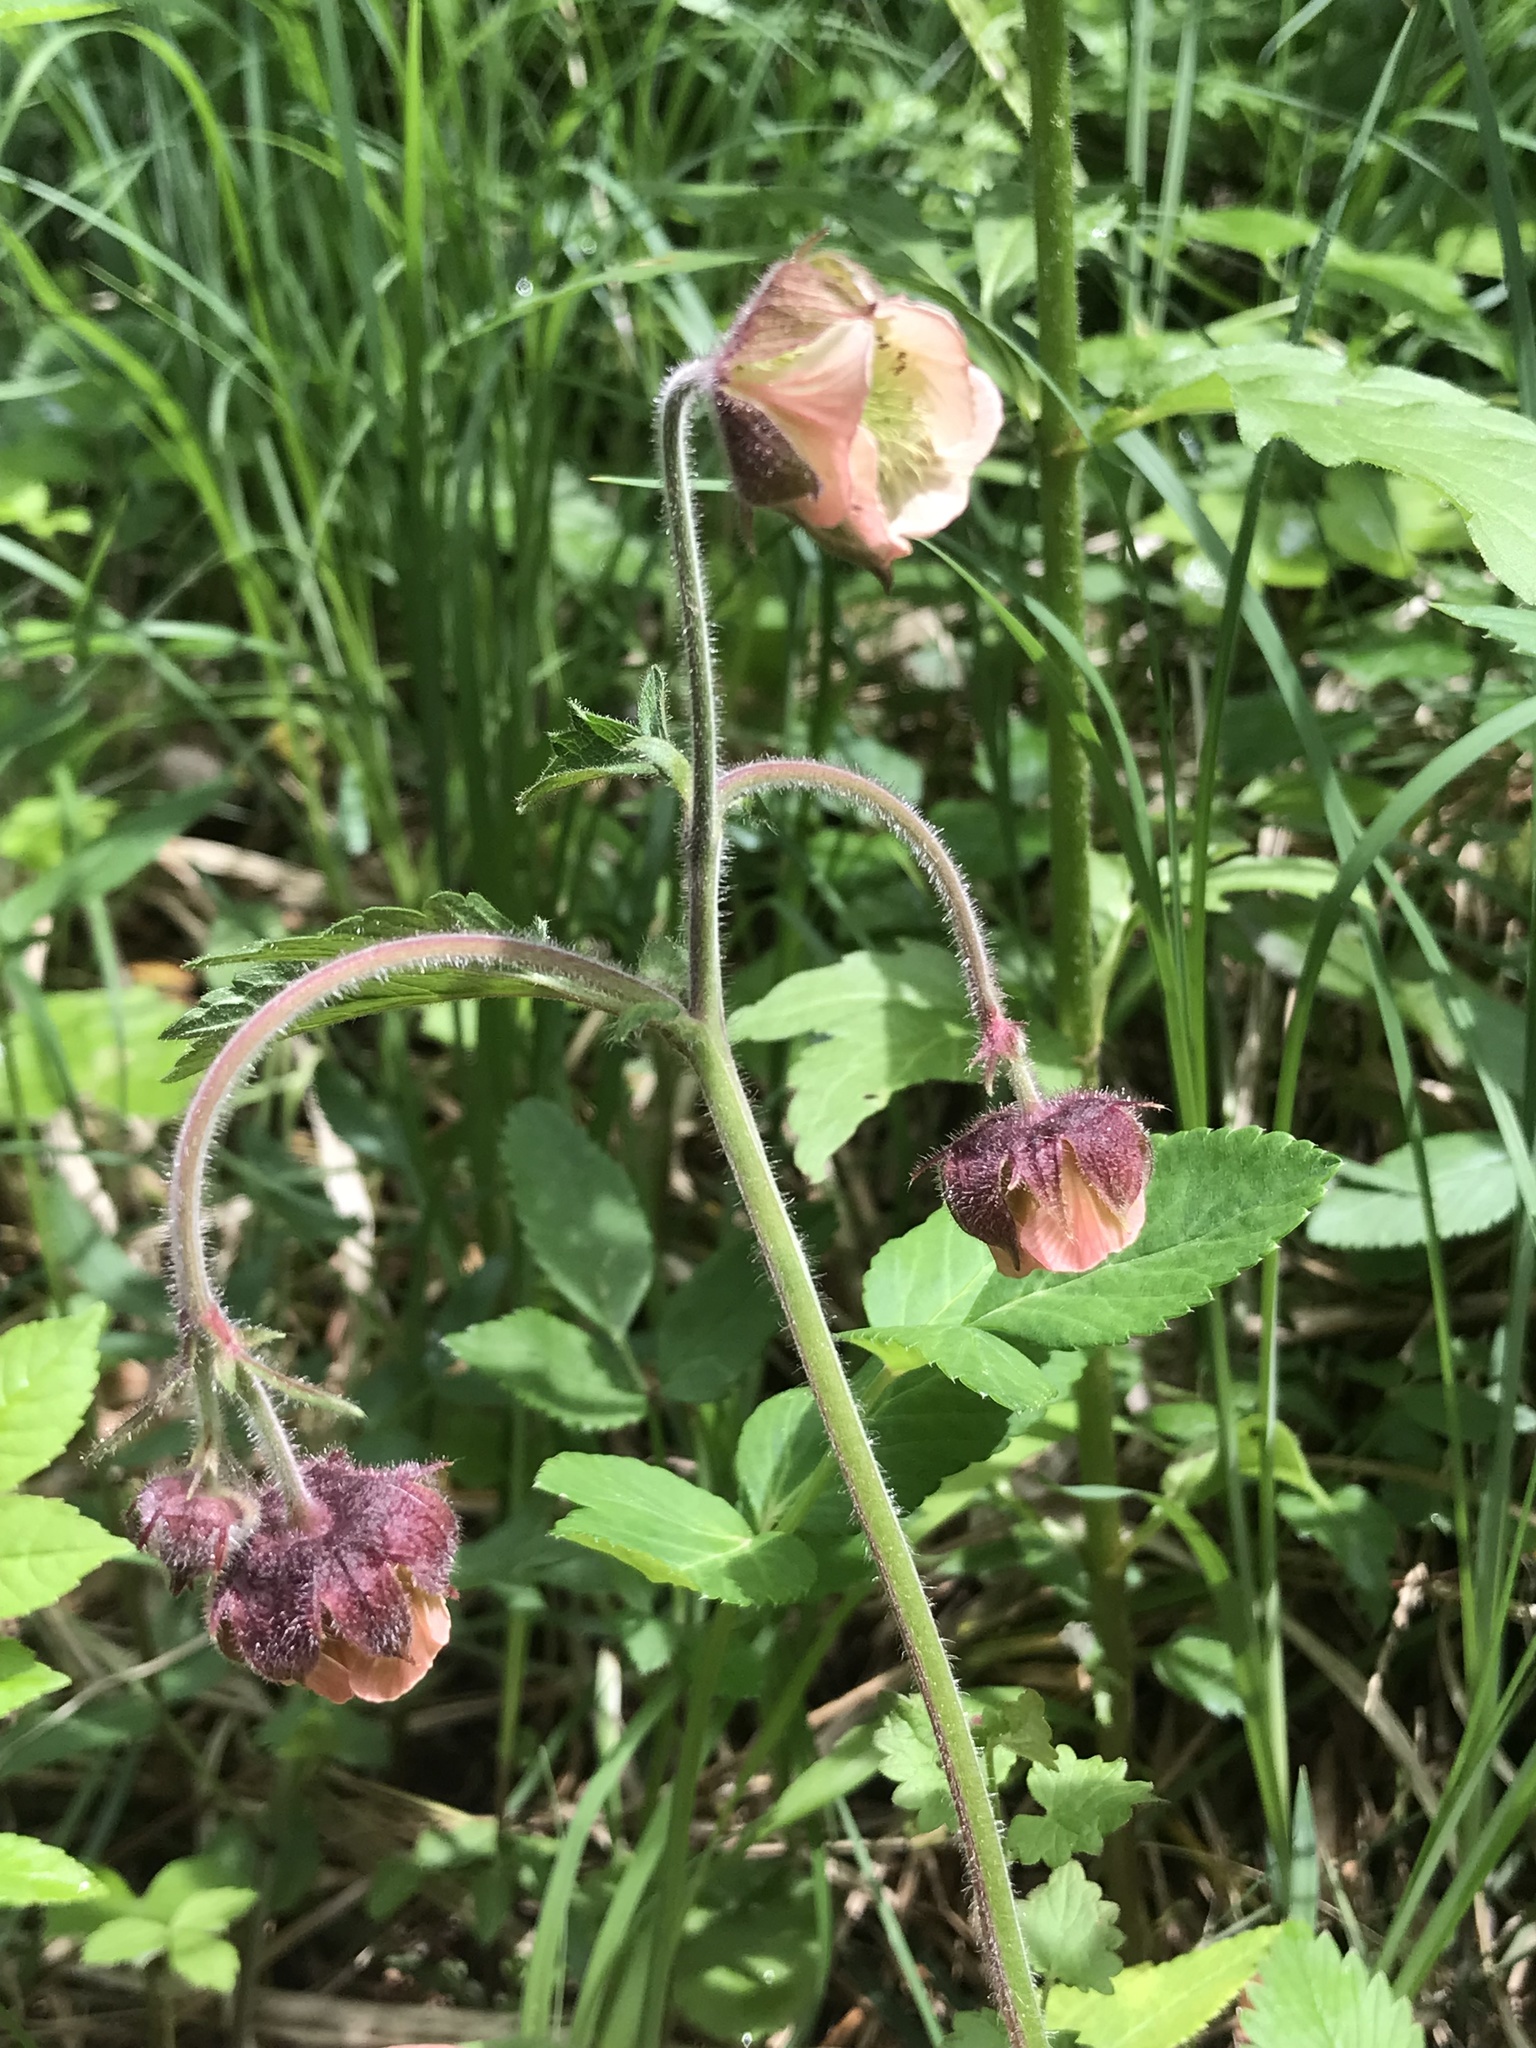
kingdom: Plantae
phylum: Tracheophyta
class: Magnoliopsida
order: Rosales
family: Rosaceae
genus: Geum
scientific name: Geum rivale
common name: Water avens
